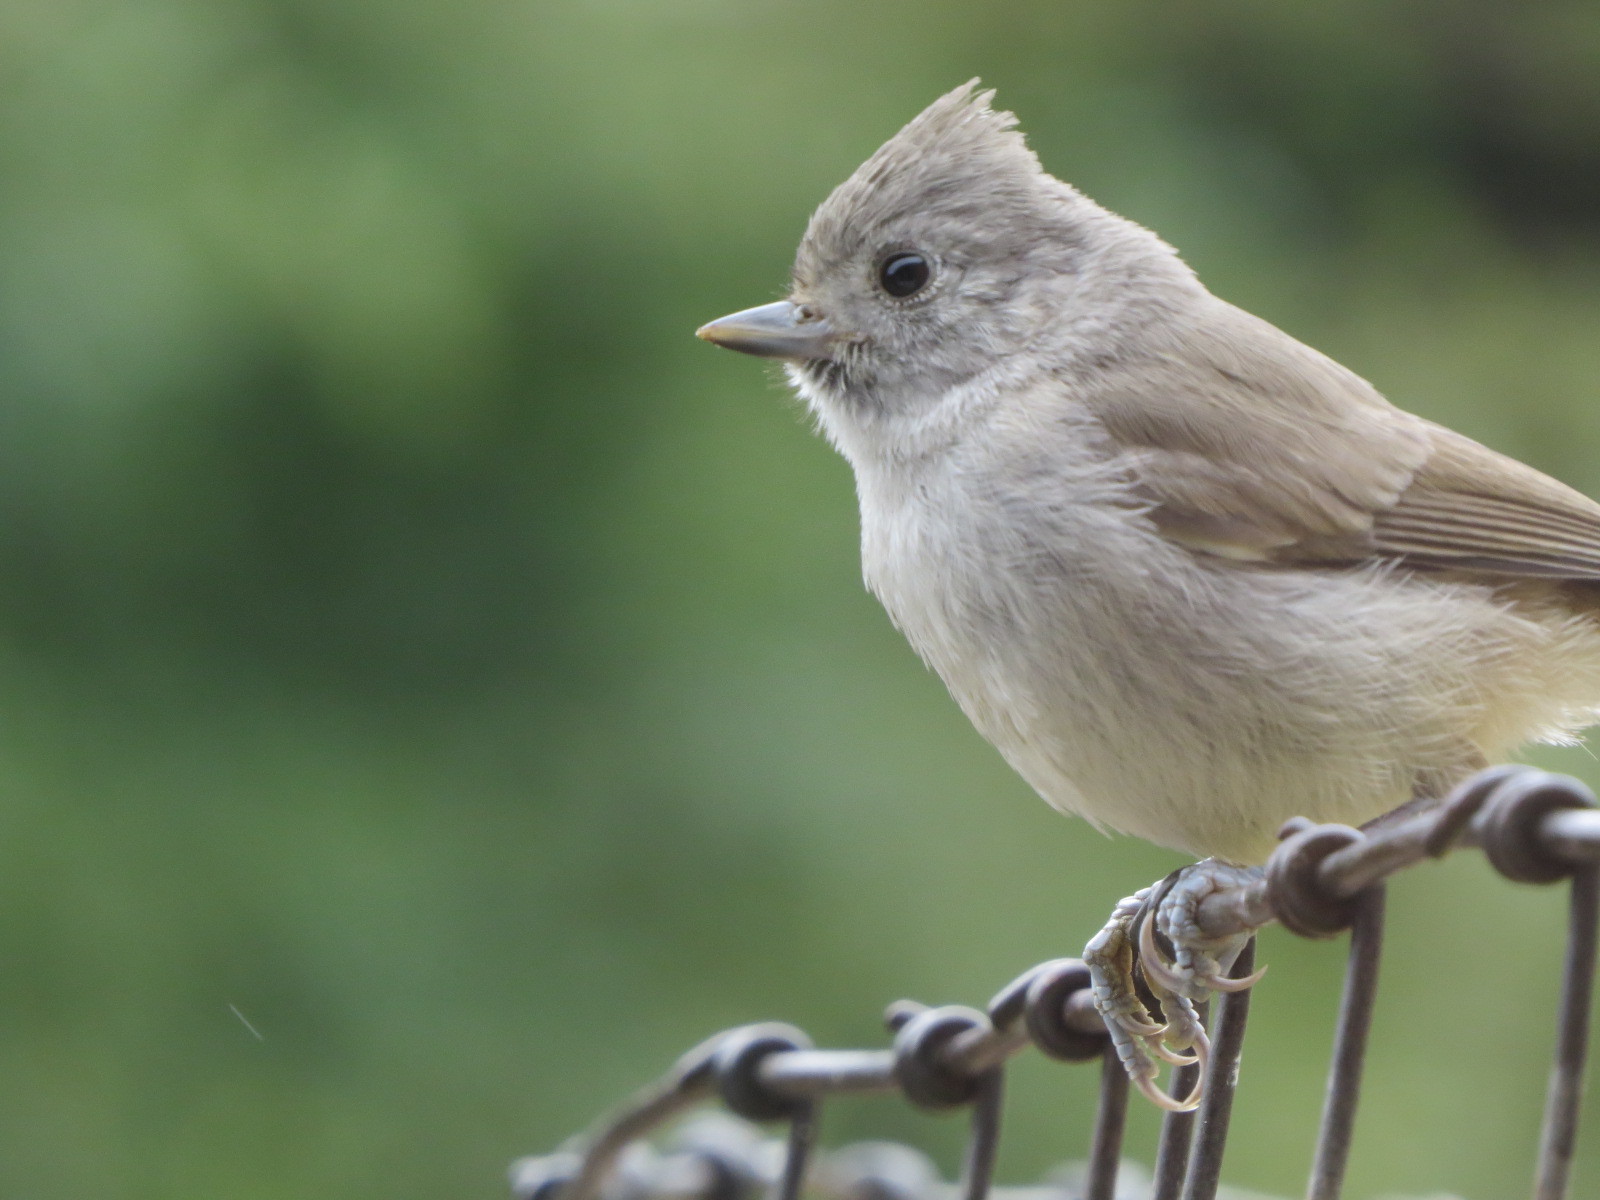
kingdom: Animalia
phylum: Chordata
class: Aves
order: Passeriformes
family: Paridae
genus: Baeolophus
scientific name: Baeolophus inornatus
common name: Oak titmouse
